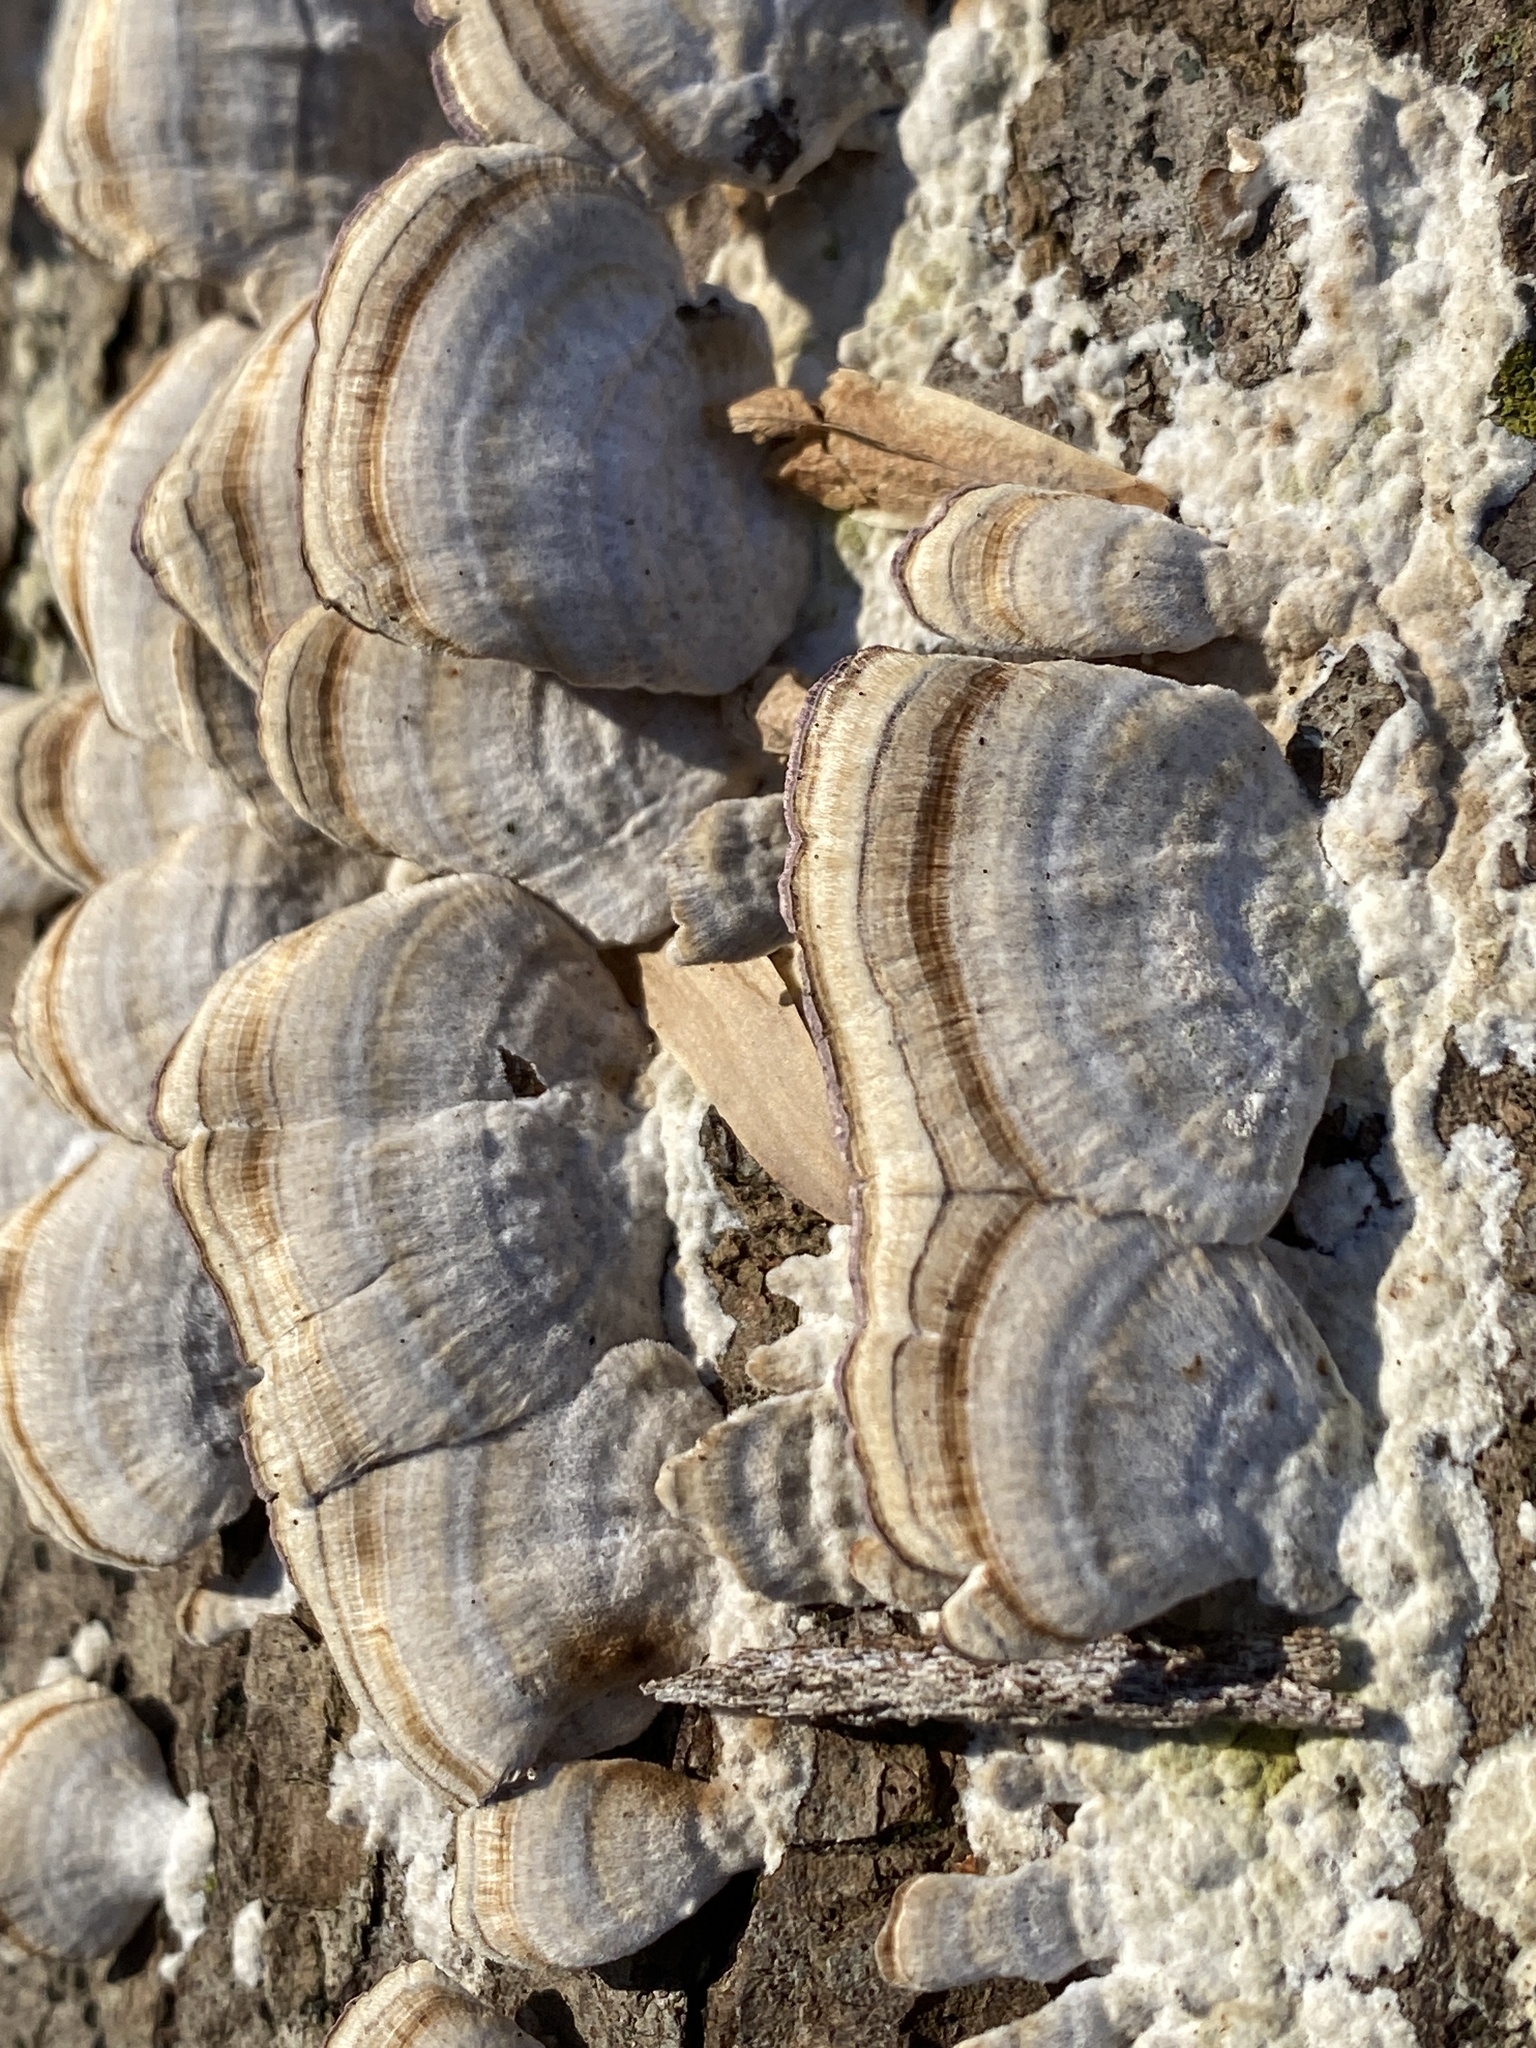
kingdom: Fungi
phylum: Basidiomycota
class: Agaricomycetes
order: Hymenochaetales
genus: Trichaptum
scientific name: Trichaptum biforme
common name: Violet-toothed polypore
